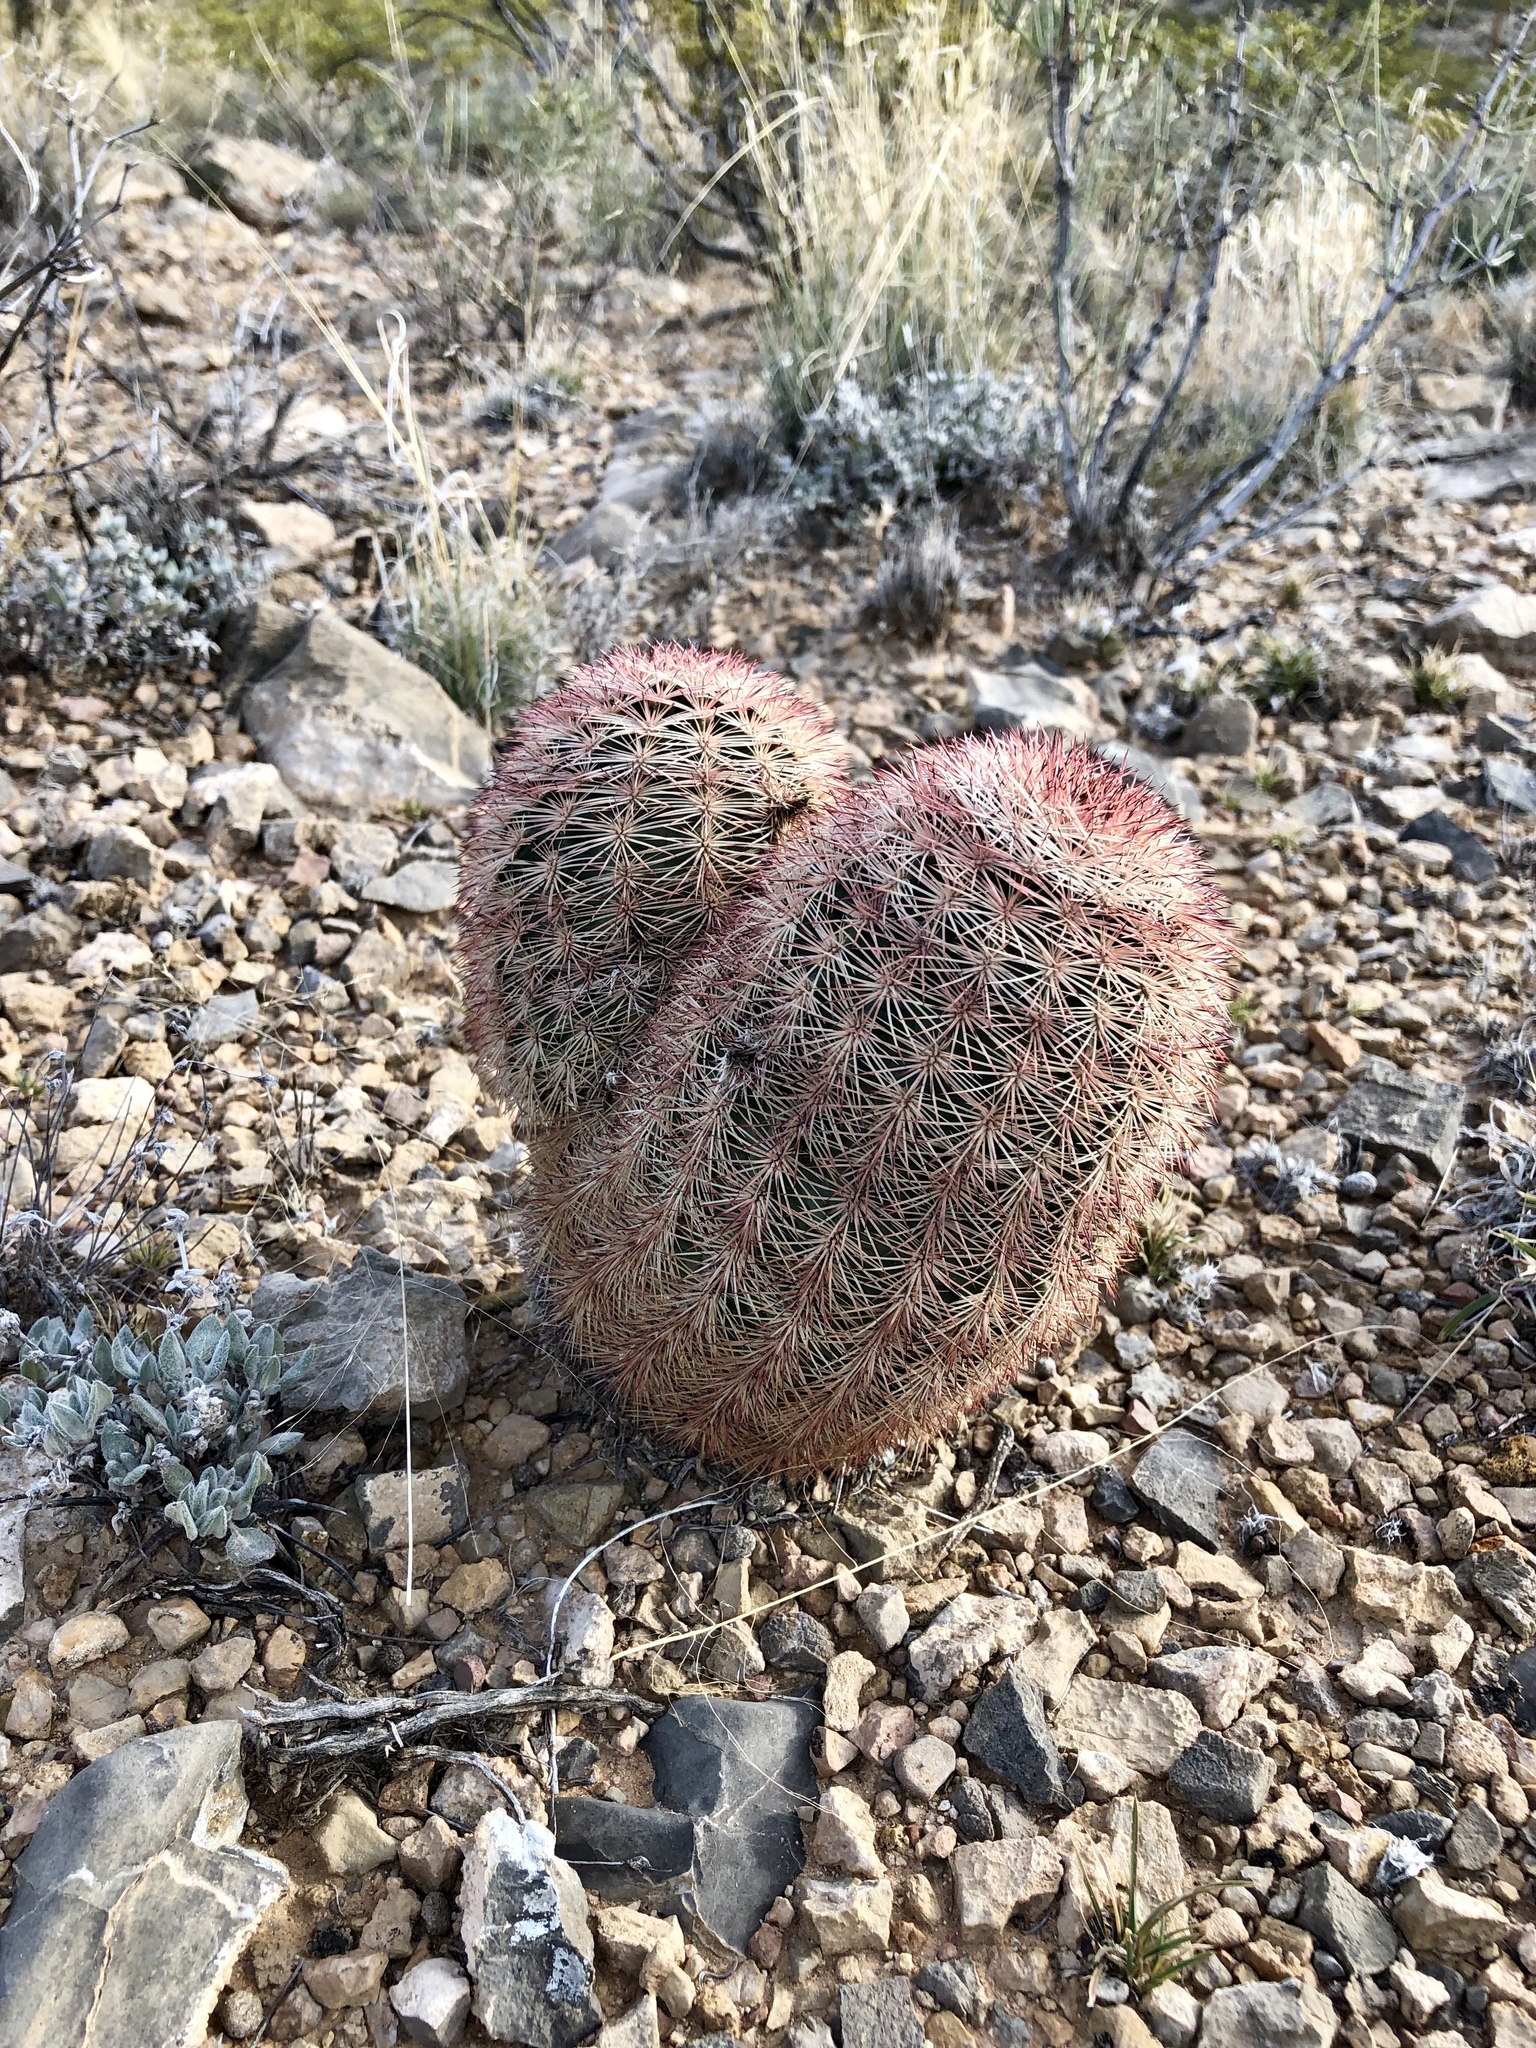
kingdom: Plantae
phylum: Tracheophyta
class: Magnoliopsida
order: Caryophyllales
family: Cactaceae
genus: Echinocereus
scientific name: Echinocereus dasyacanthus
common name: Spiny hedgehog cactus
